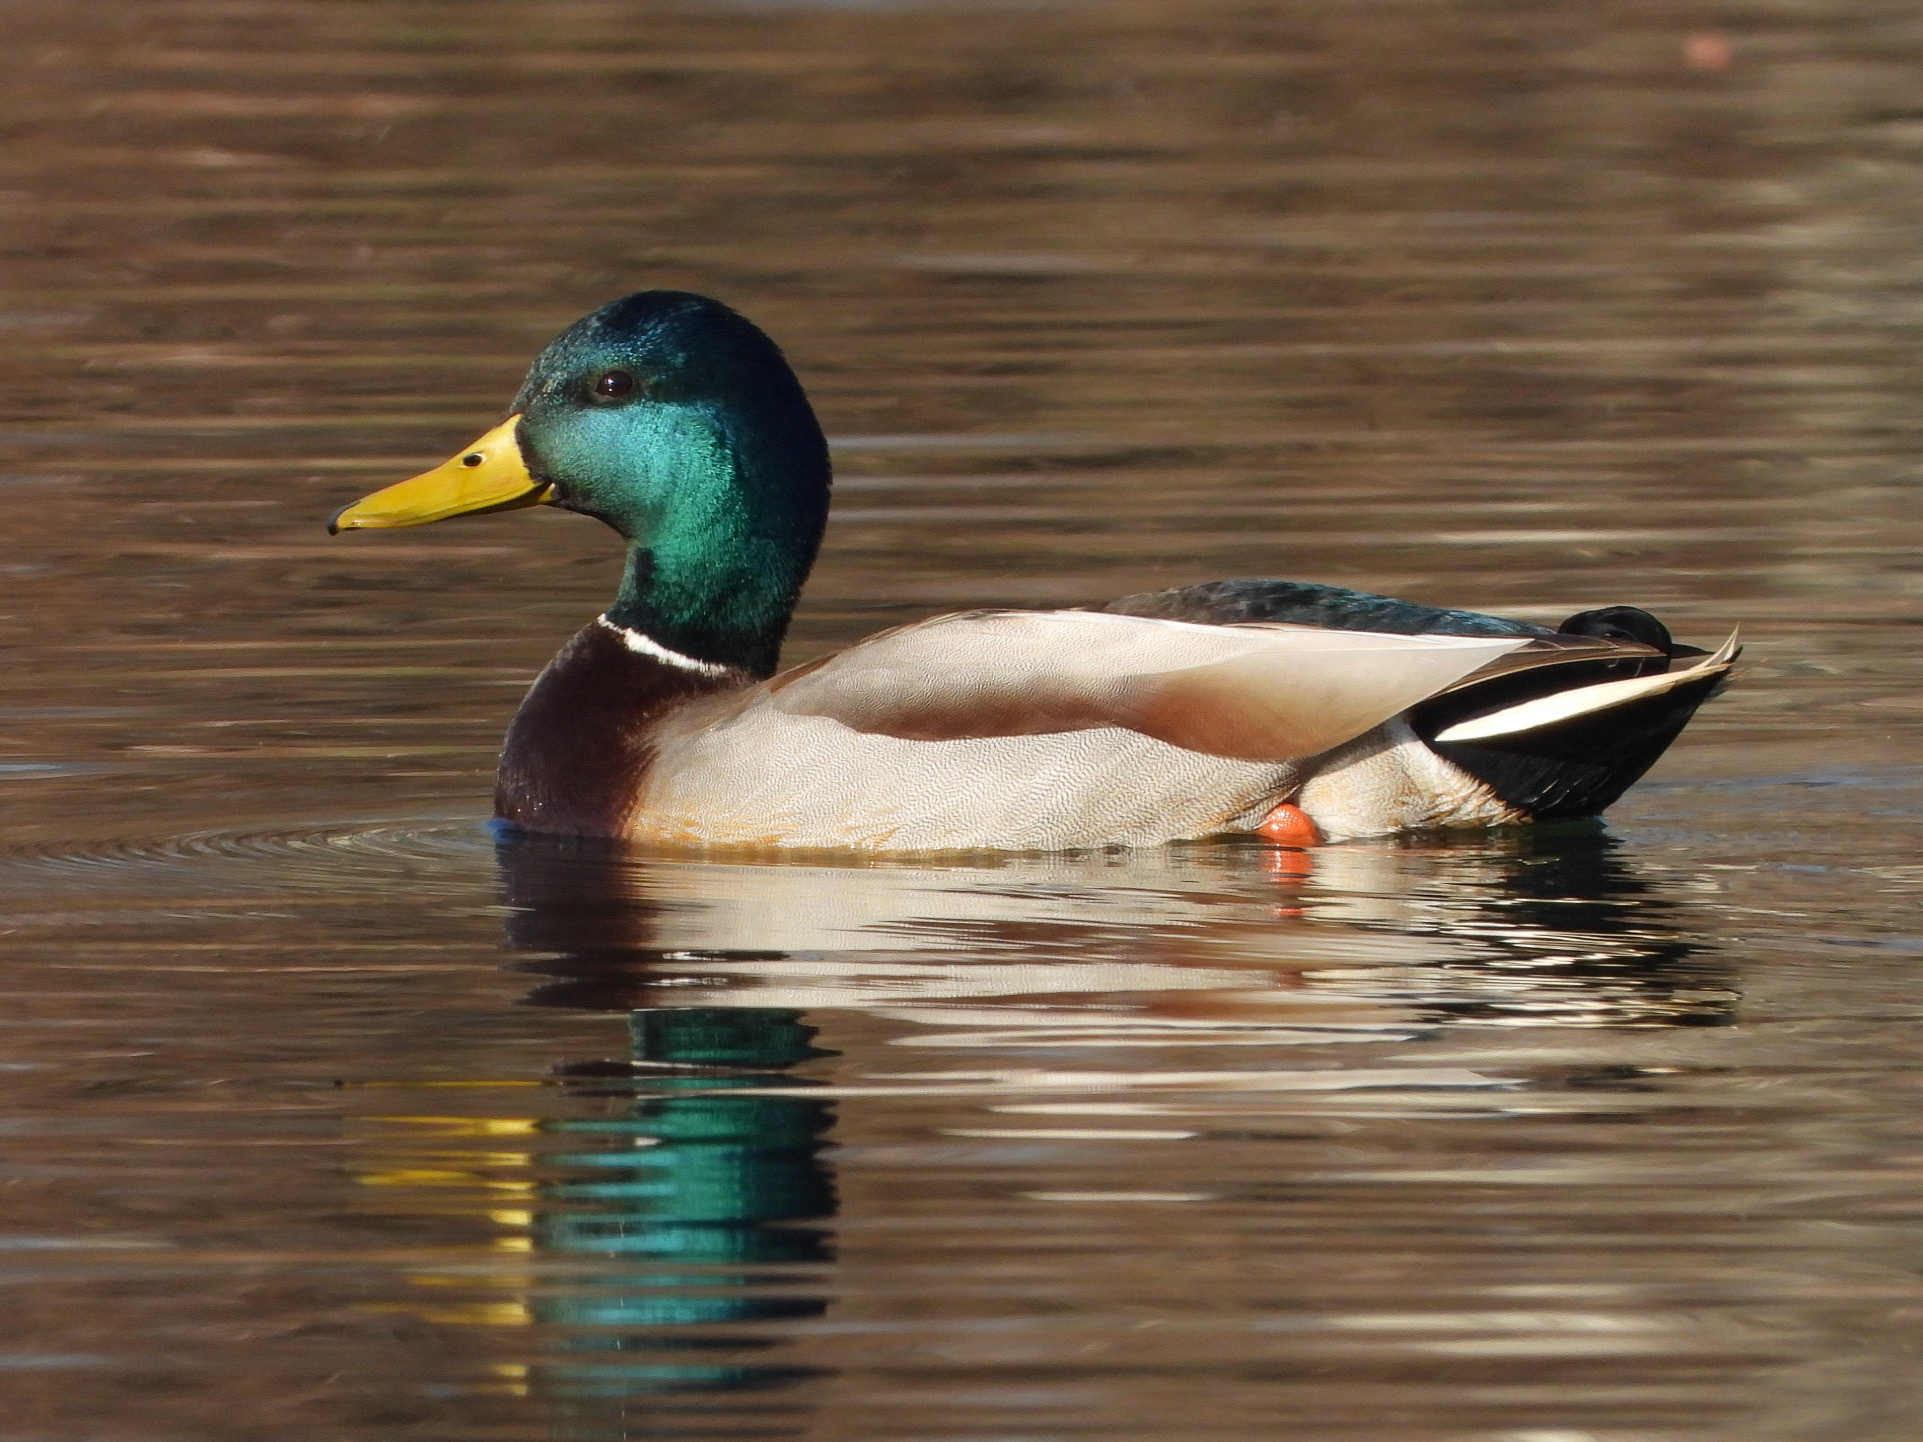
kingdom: Animalia
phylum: Chordata
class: Aves
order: Anseriformes
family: Anatidae
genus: Anas
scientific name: Anas platyrhynchos
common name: Mallard
